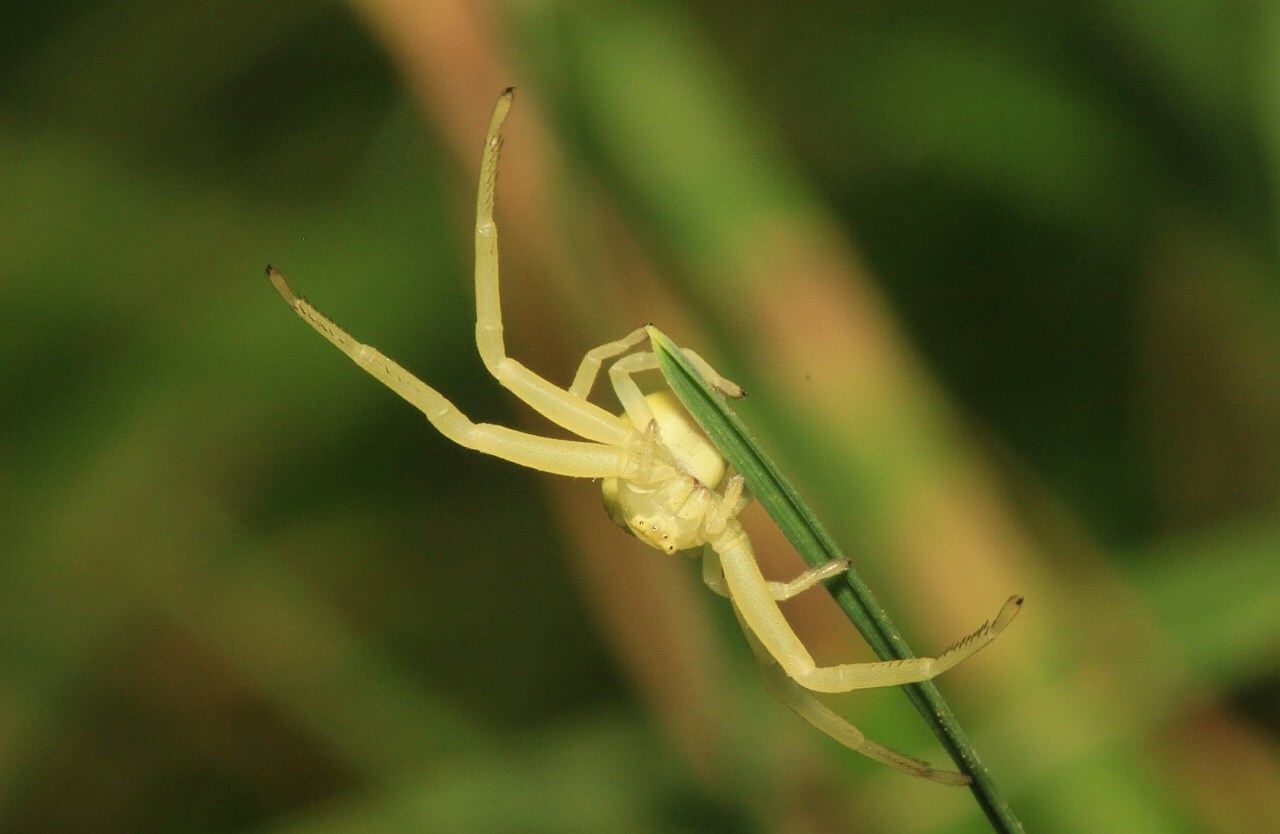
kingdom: Animalia
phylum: Arthropoda
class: Arachnida
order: Araneae
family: Thomisidae
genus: Misumena
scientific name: Misumena vatia
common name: Goldenrod crab spider
